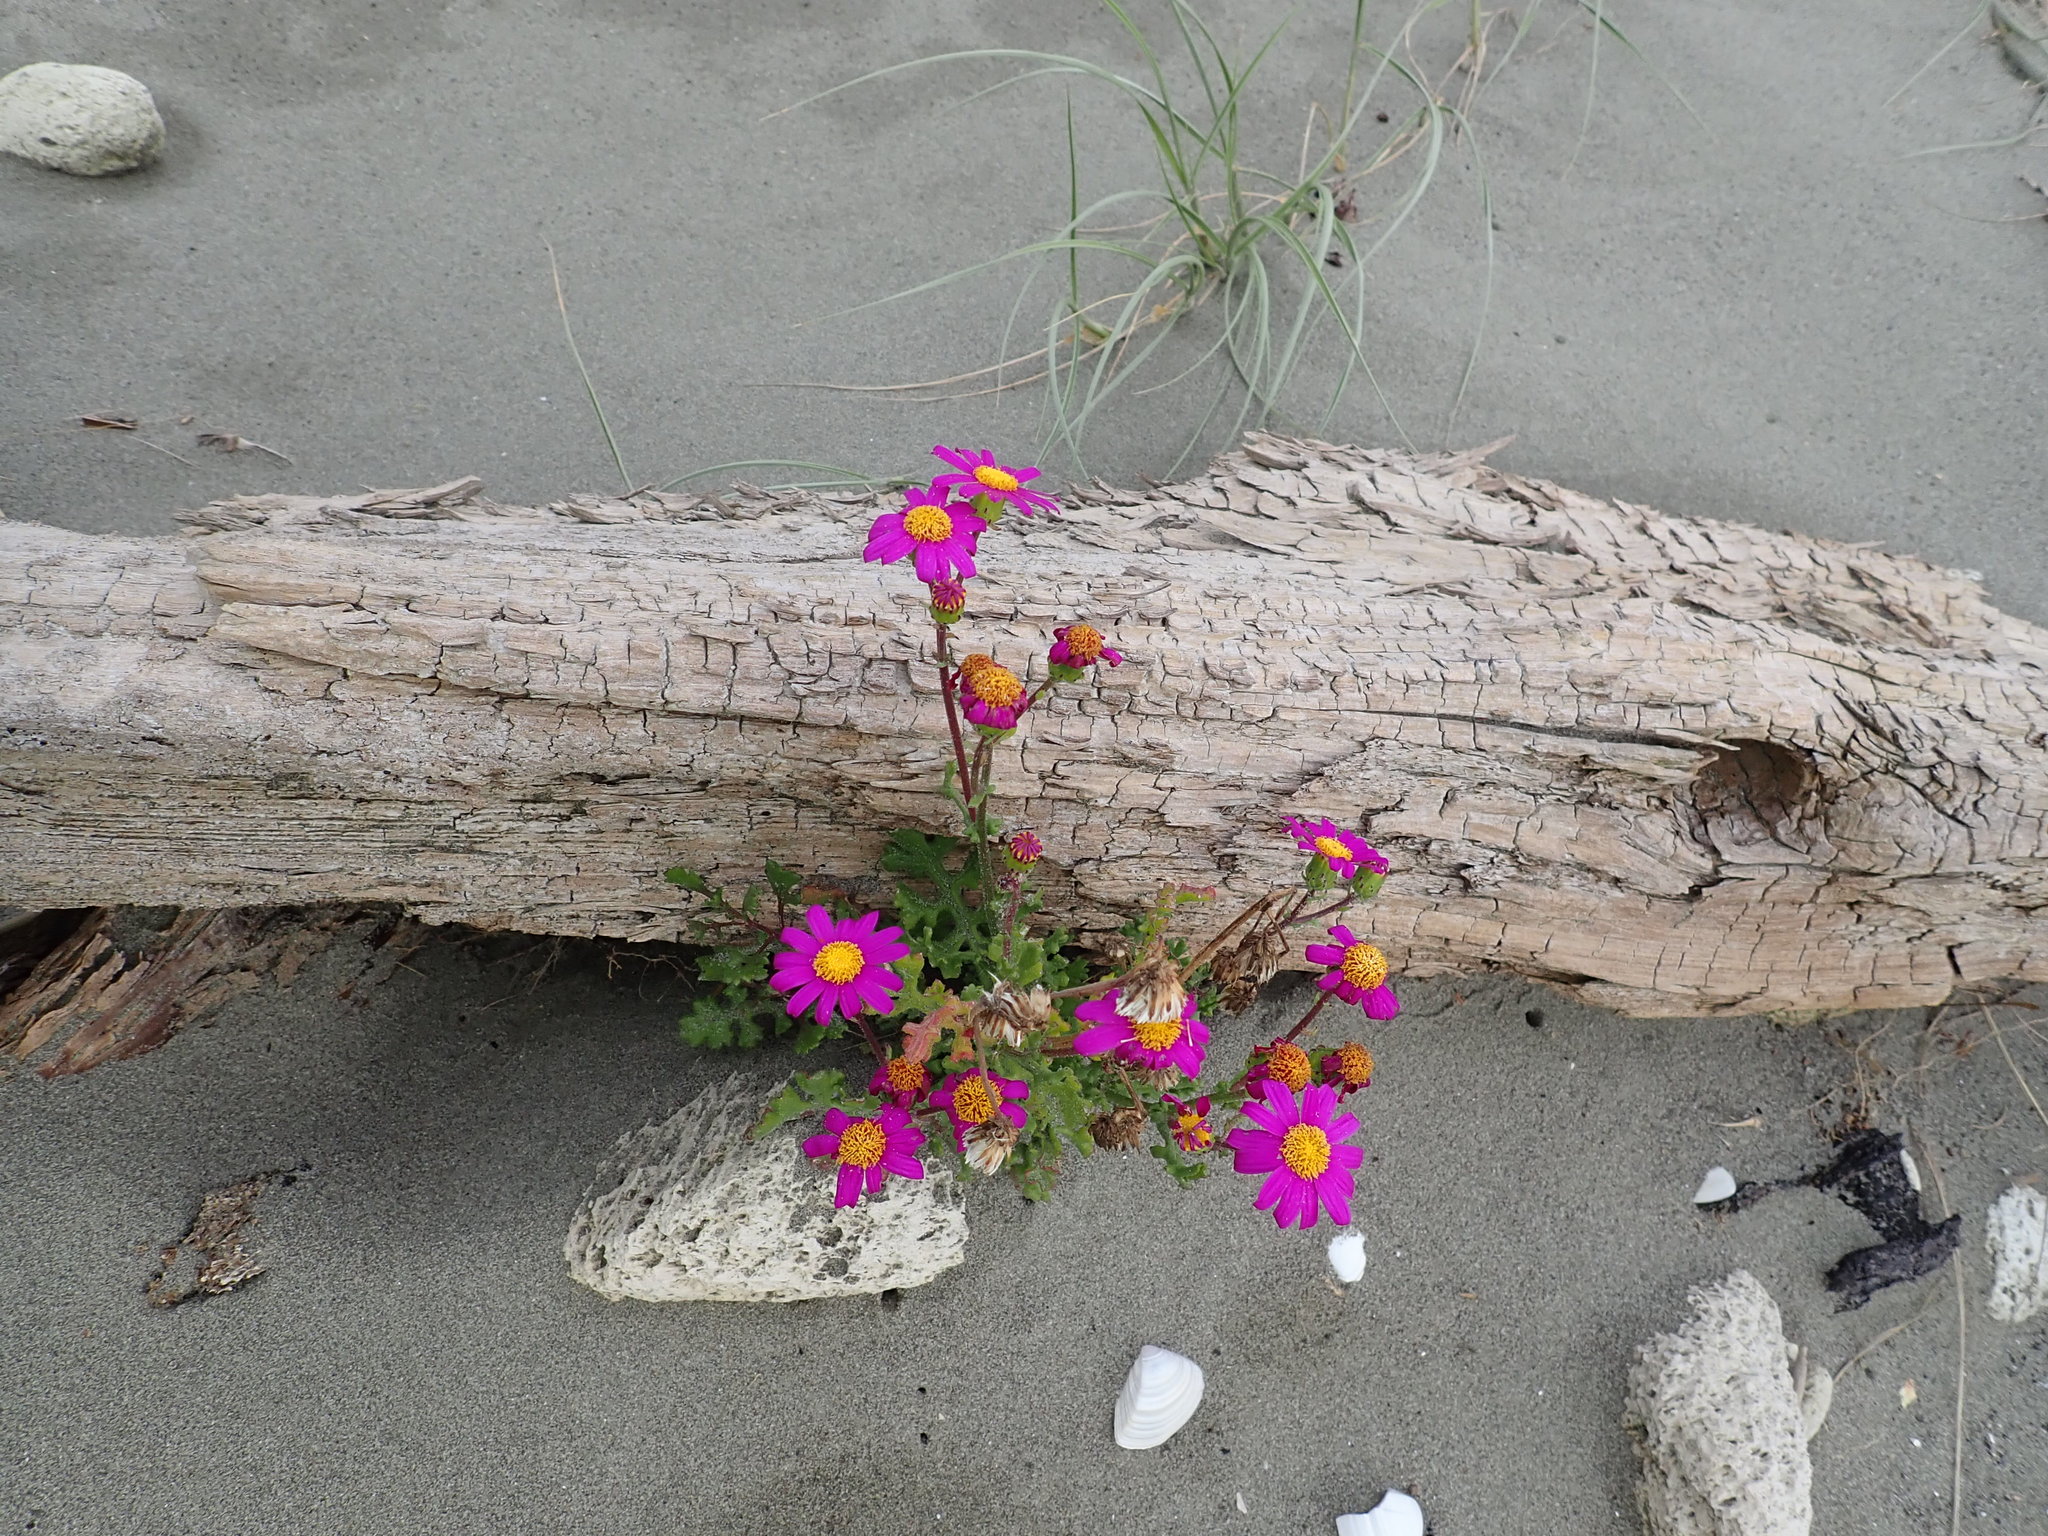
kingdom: Plantae
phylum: Tracheophyta
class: Magnoliopsida
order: Asterales
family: Asteraceae
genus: Senecio
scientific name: Senecio elegans
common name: Purple groundsel
